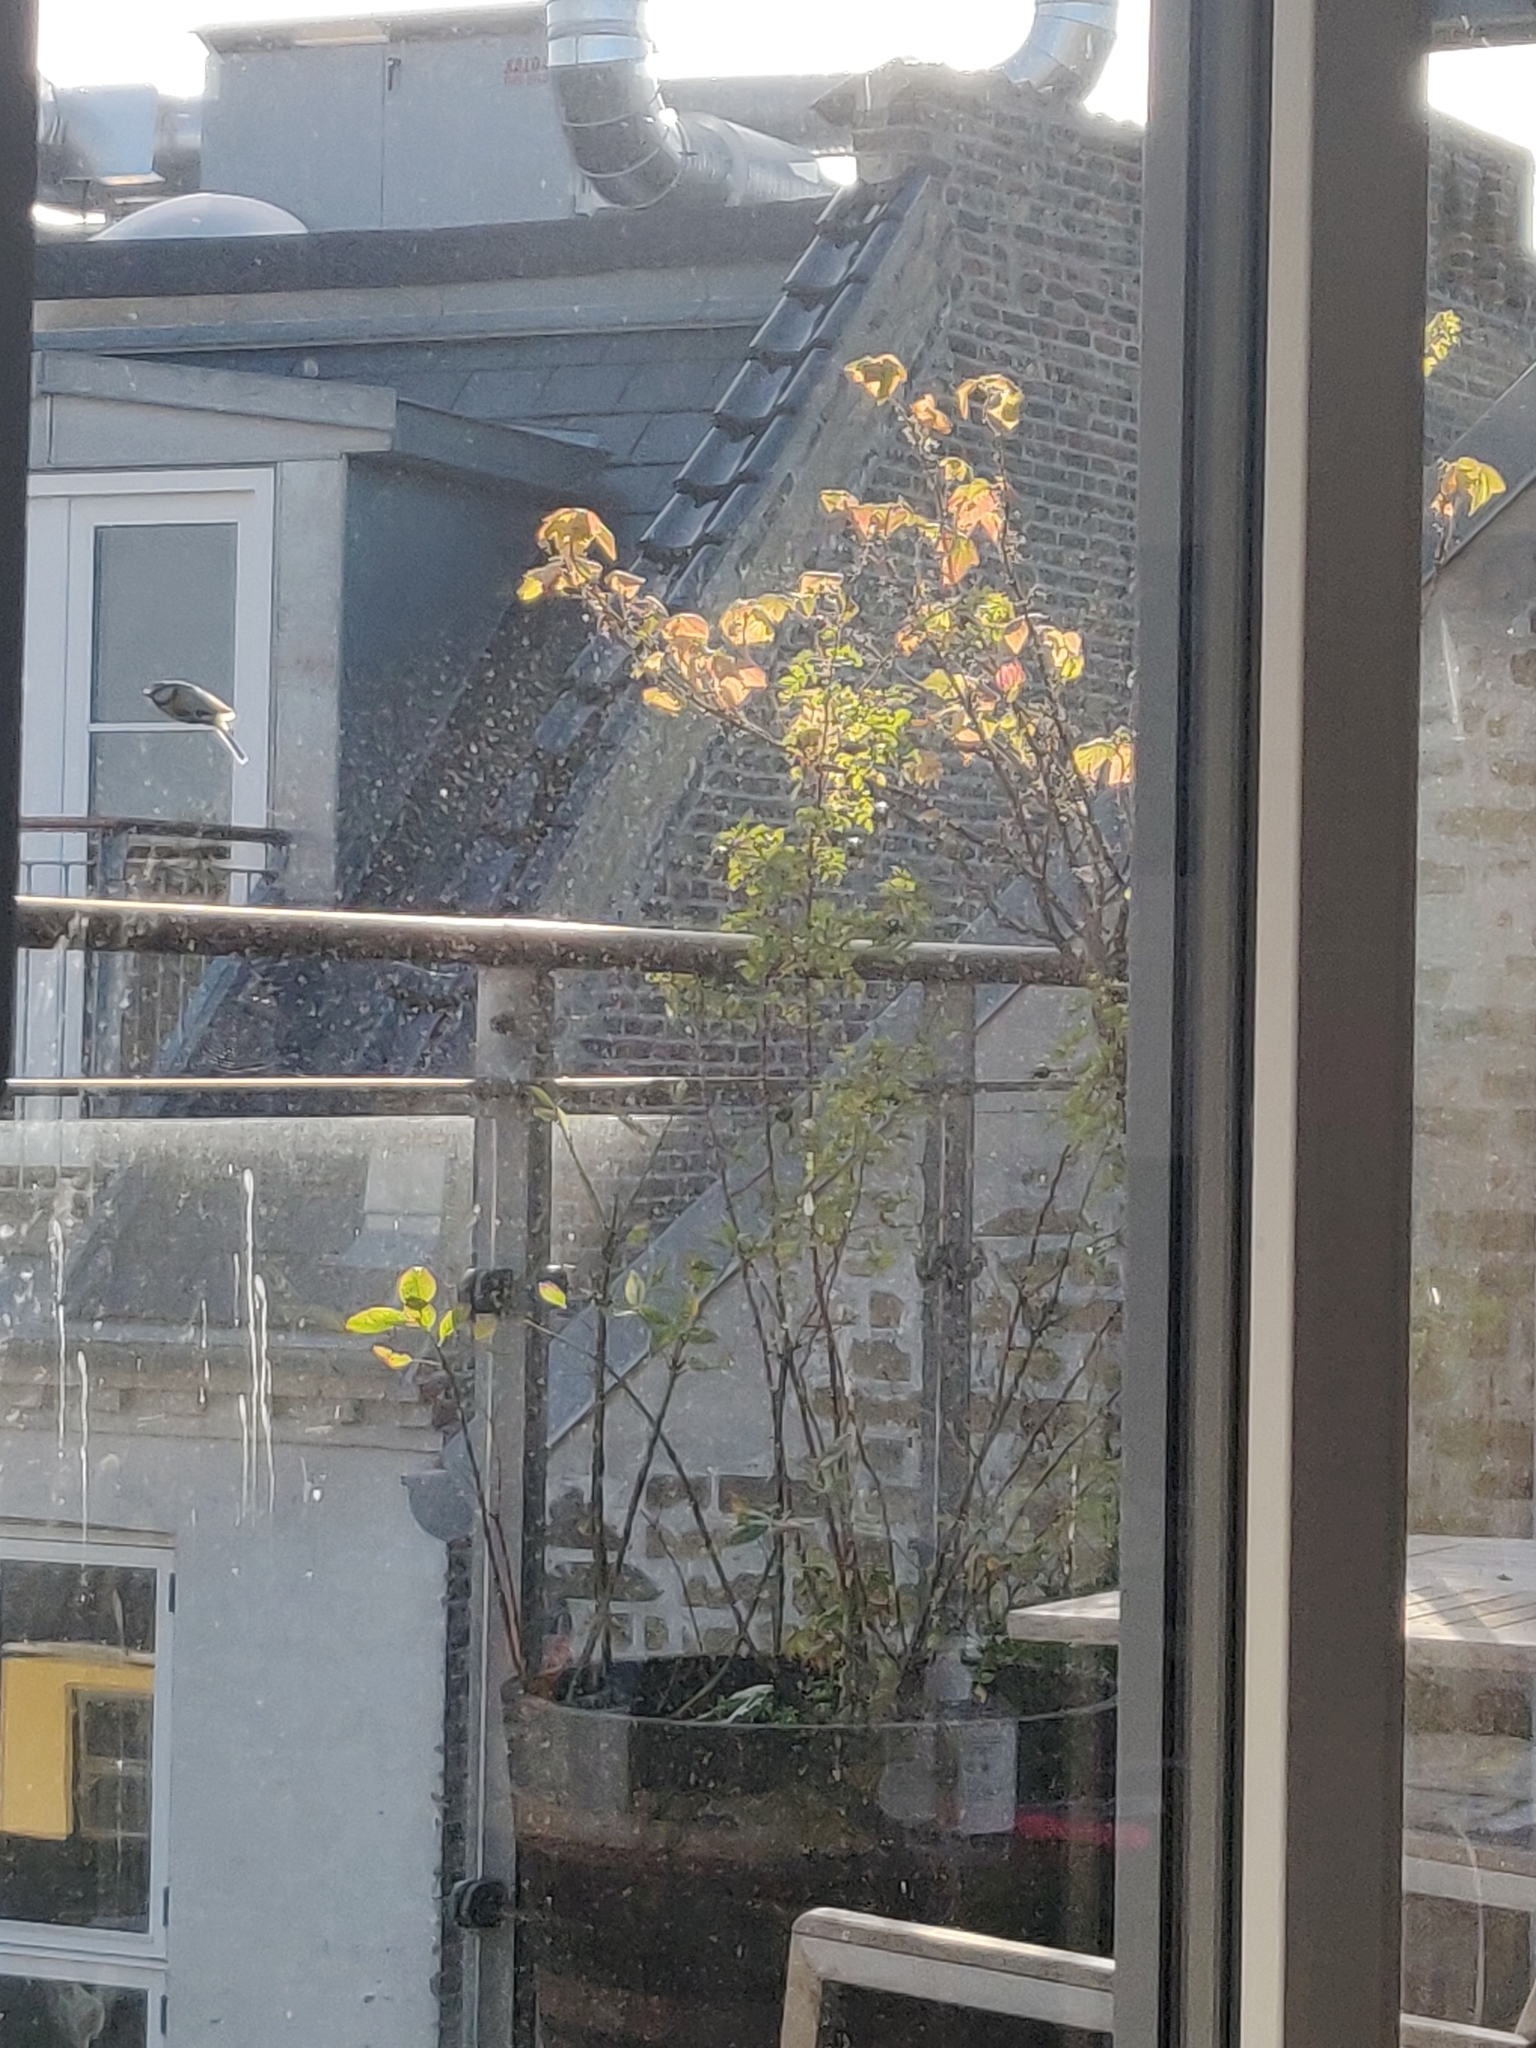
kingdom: Animalia
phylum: Chordata
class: Aves
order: Passeriformes
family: Paridae
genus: Cyanistes
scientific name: Cyanistes caeruleus
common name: Eurasian blue tit
